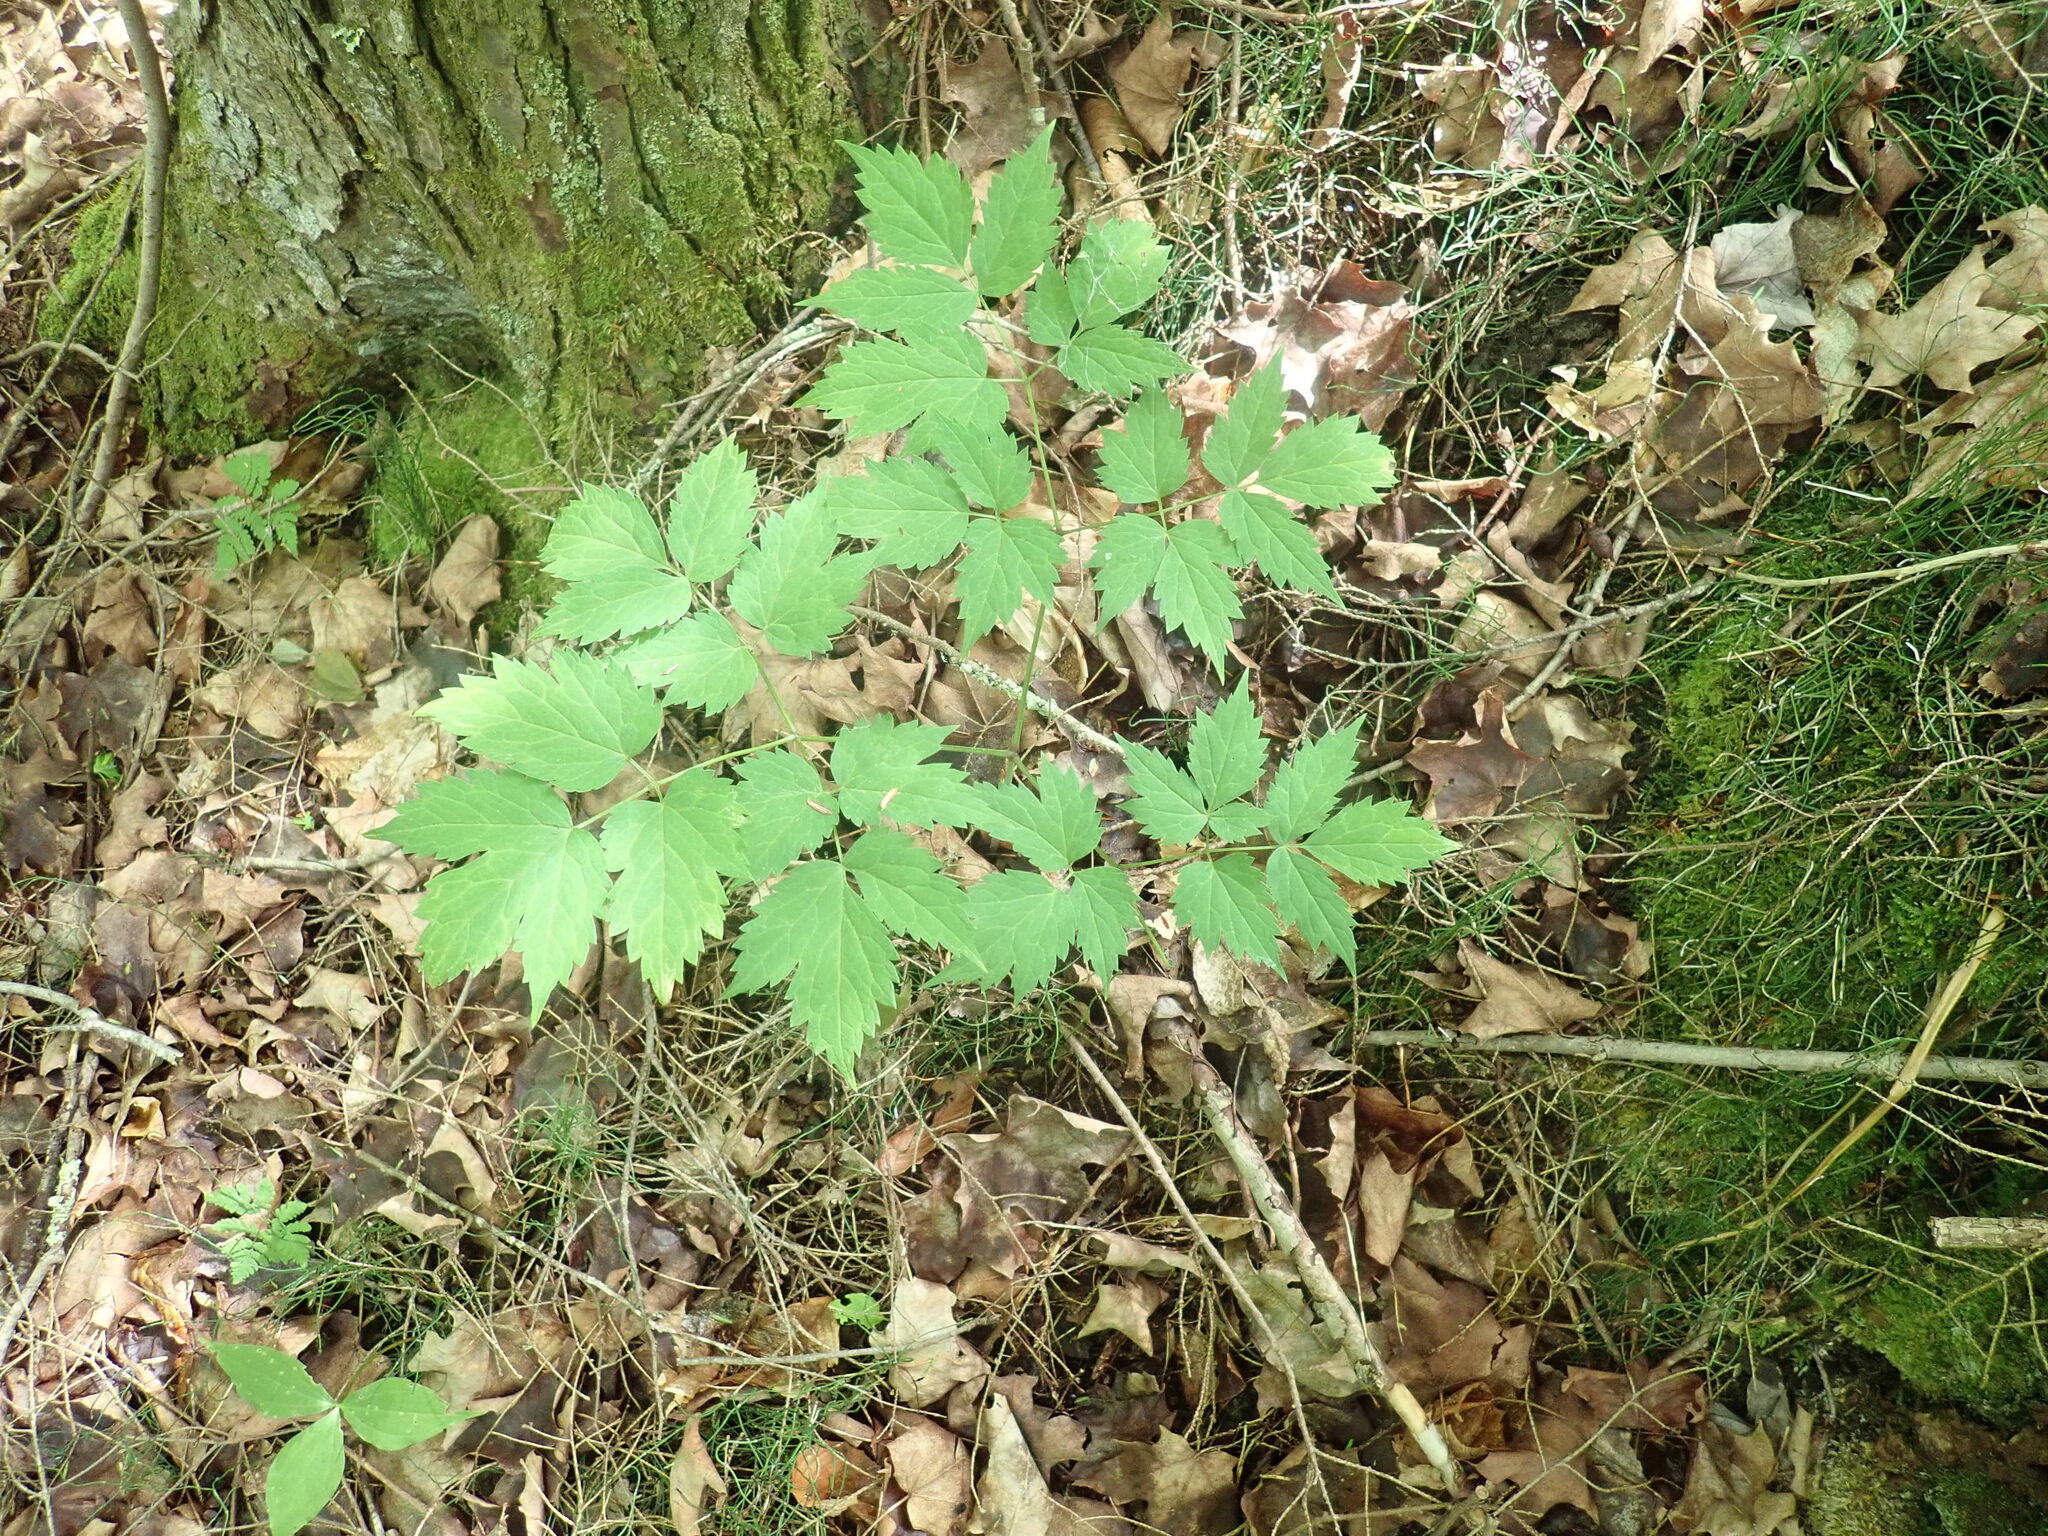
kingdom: Plantae
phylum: Tracheophyta
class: Magnoliopsida
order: Ranunculales
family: Ranunculaceae
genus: Actaea
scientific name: Actaea
